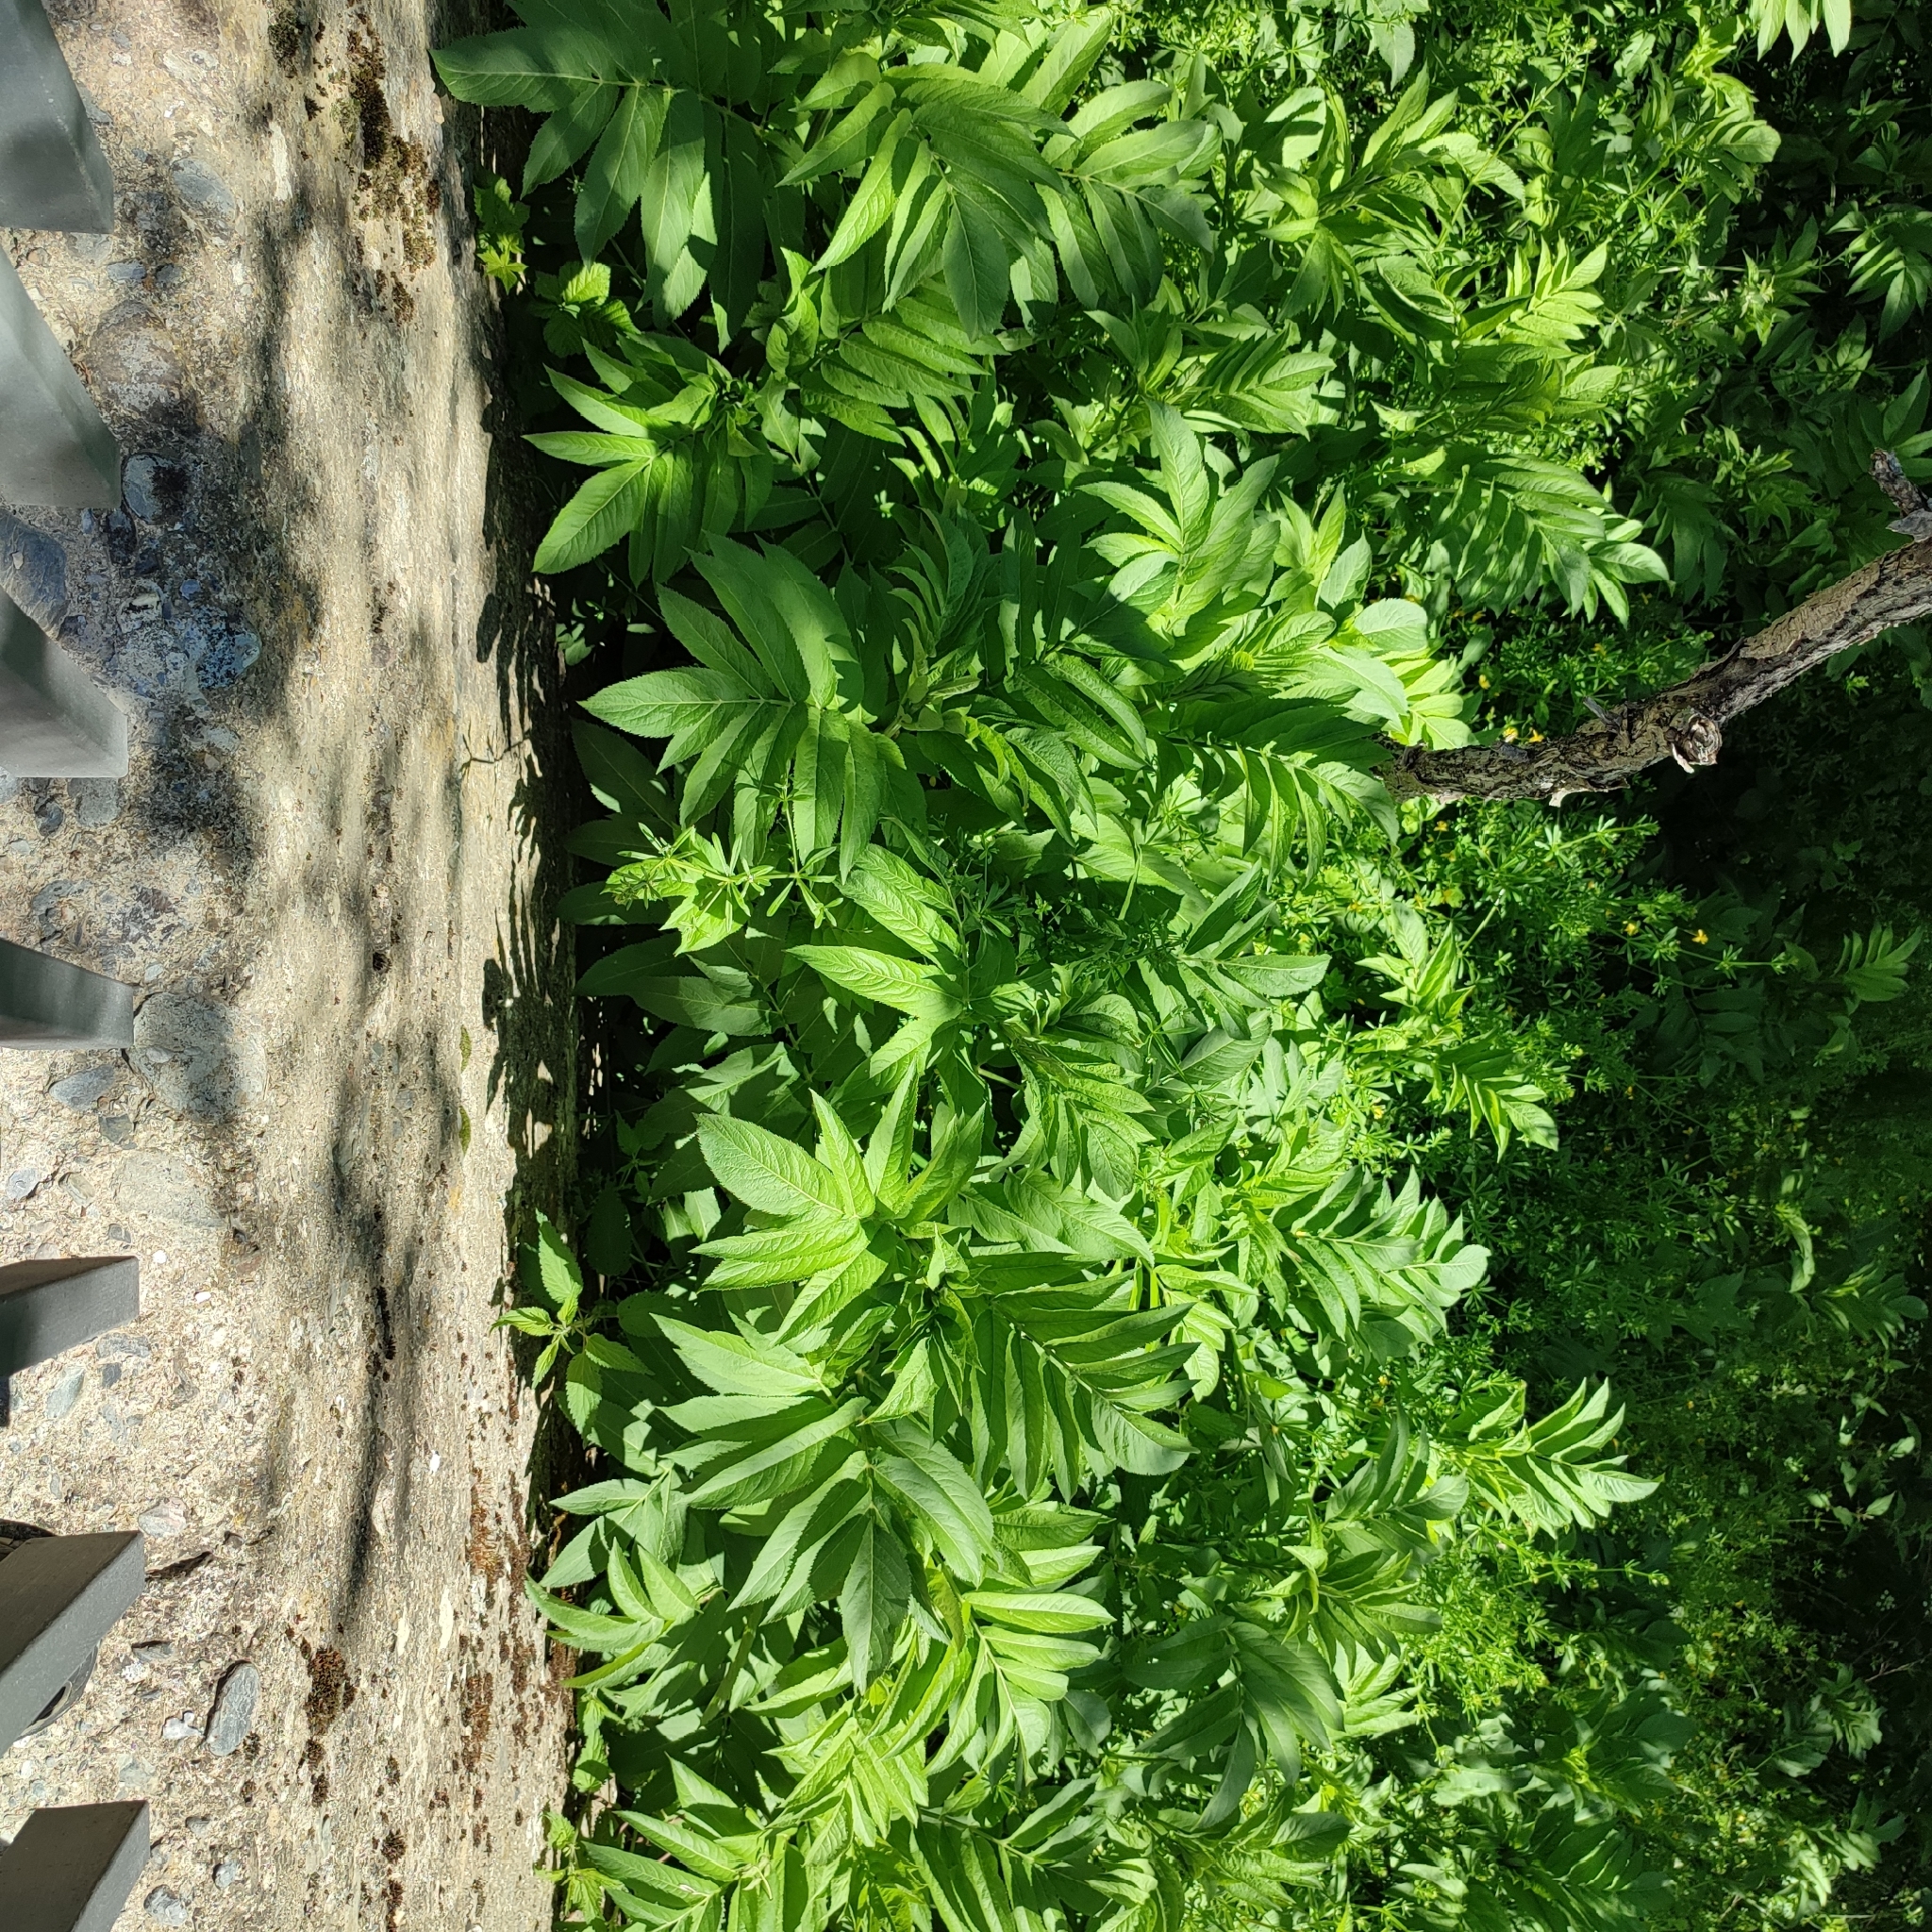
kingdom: Plantae
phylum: Tracheophyta
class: Magnoliopsida
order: Dipsacales
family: Viburnaceae
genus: Sambucus
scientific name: Sambucus ebulus
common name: Dwarf elder
